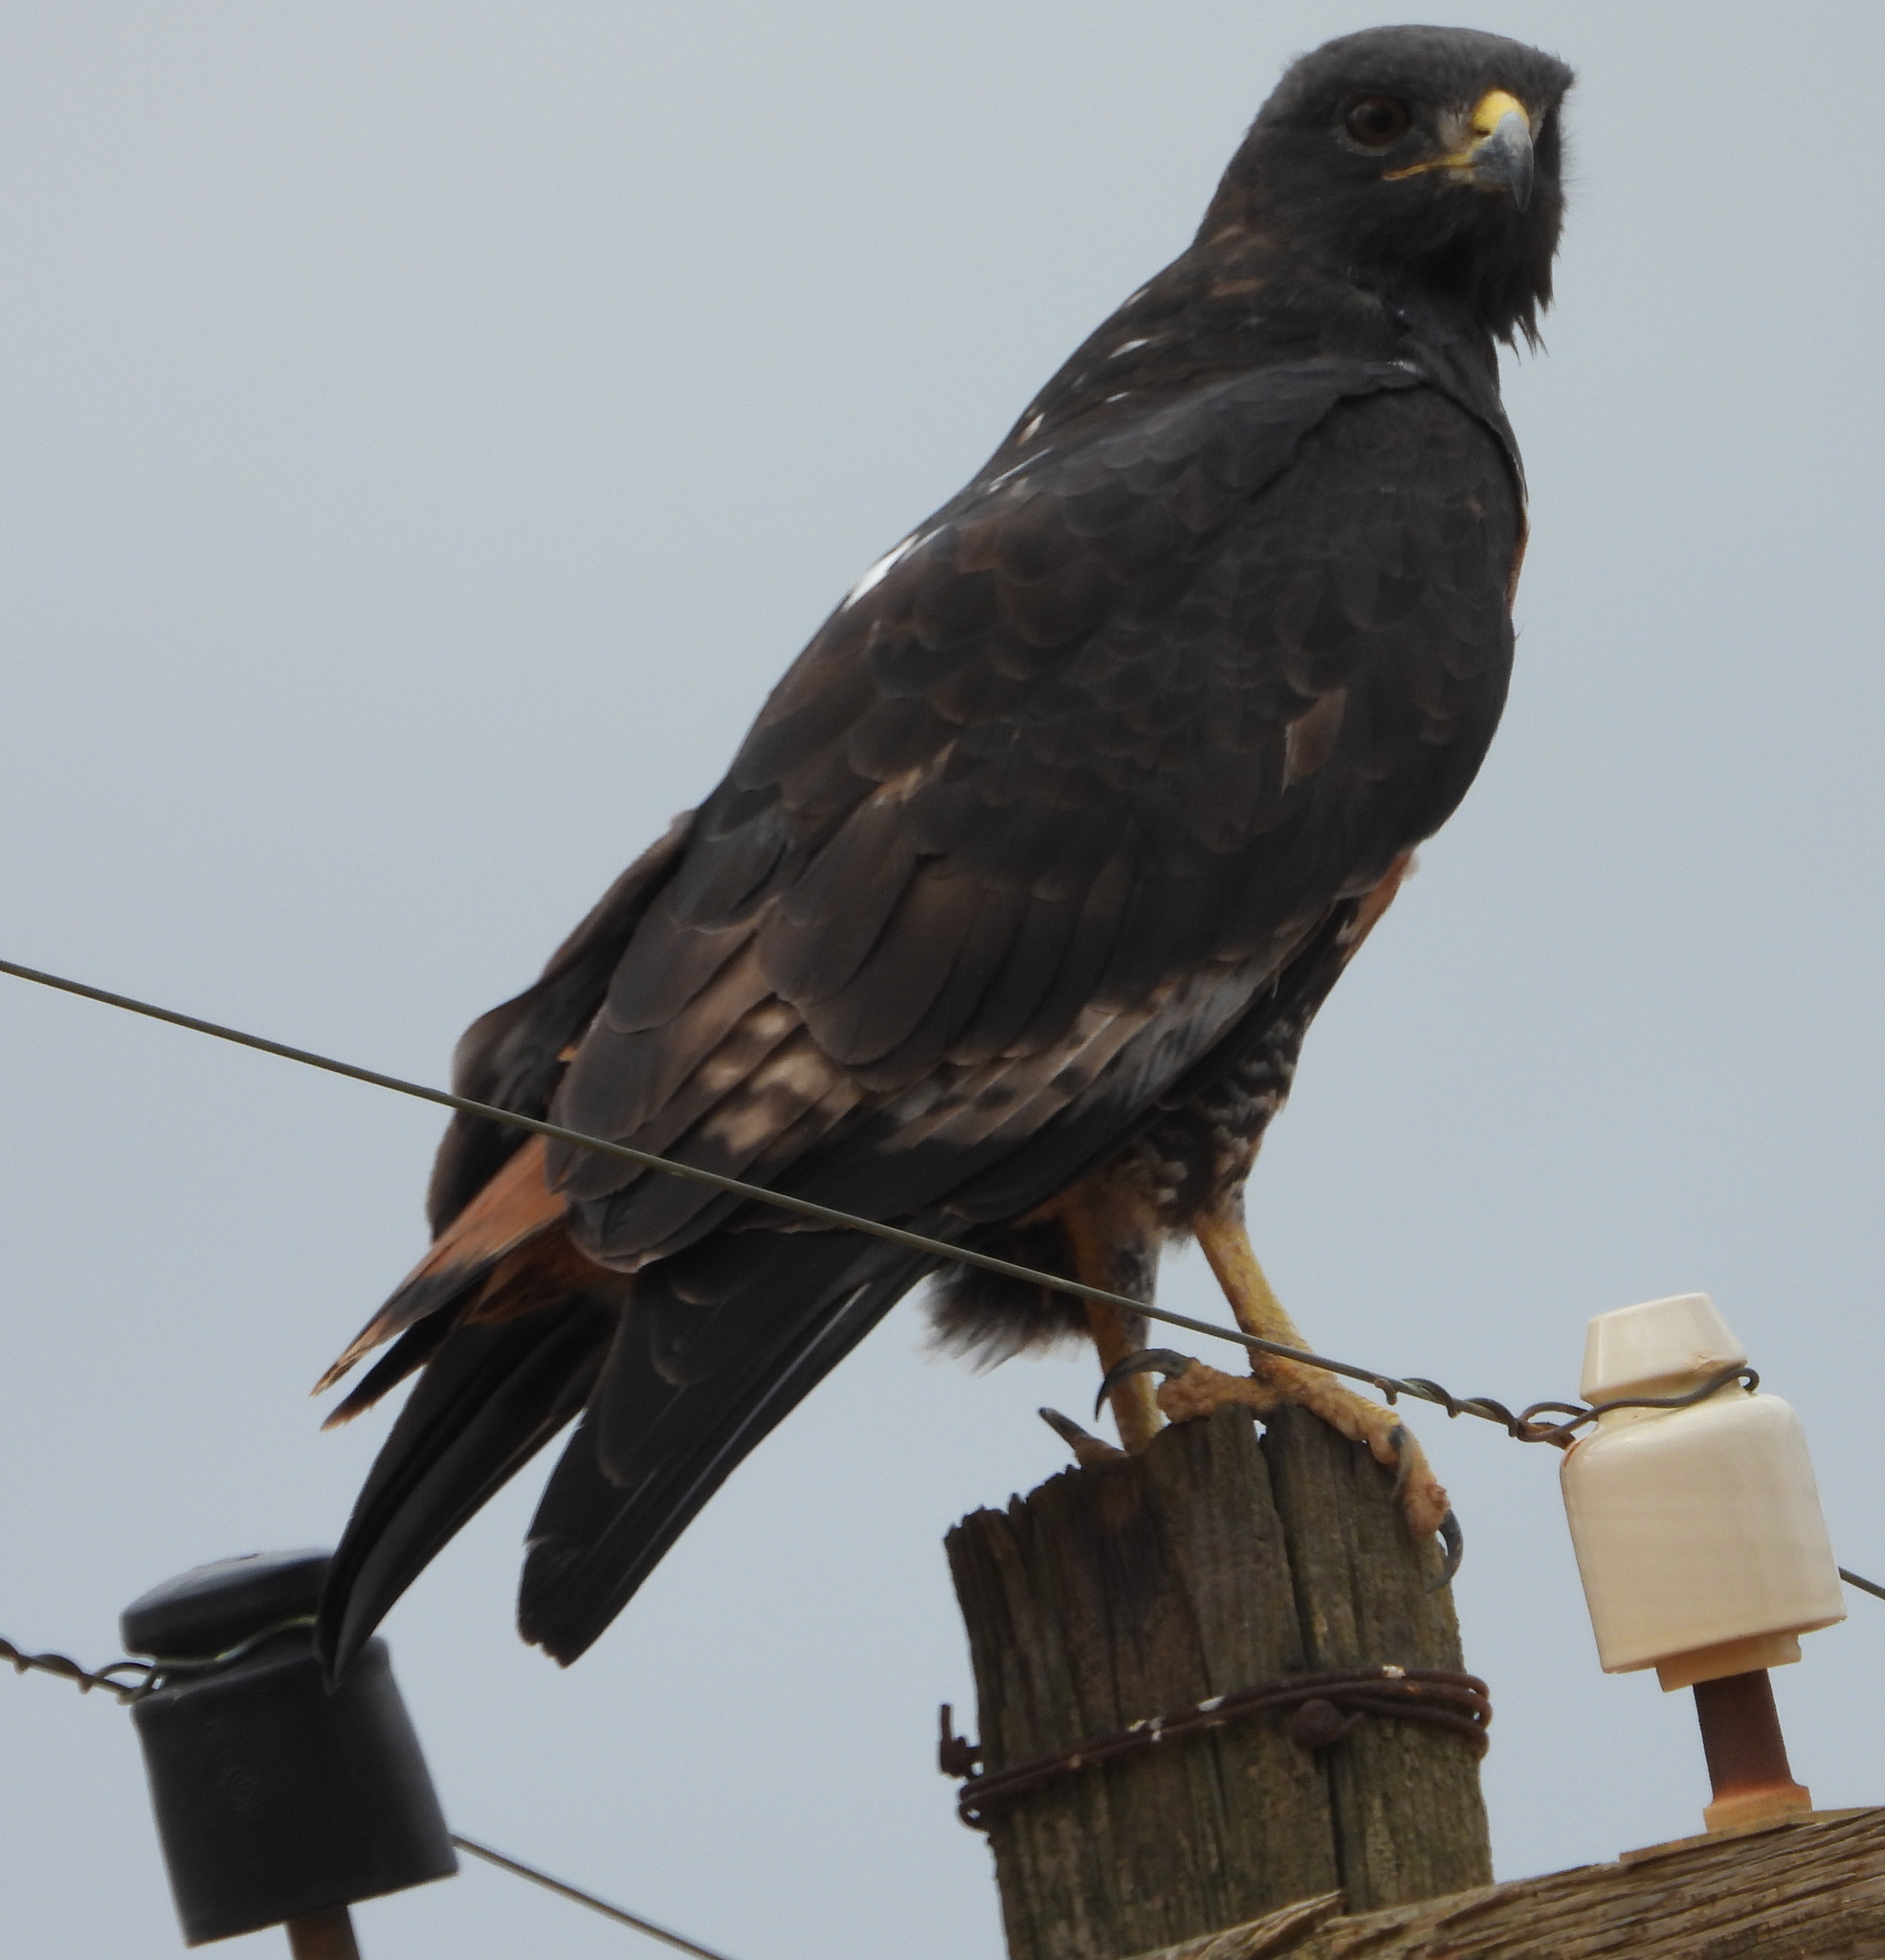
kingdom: Animalia
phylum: Chordata
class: Aves
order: Accipitriformes
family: Accipitridae
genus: Buteo
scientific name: Buteo rufofuscus
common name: Jackal buzzard
